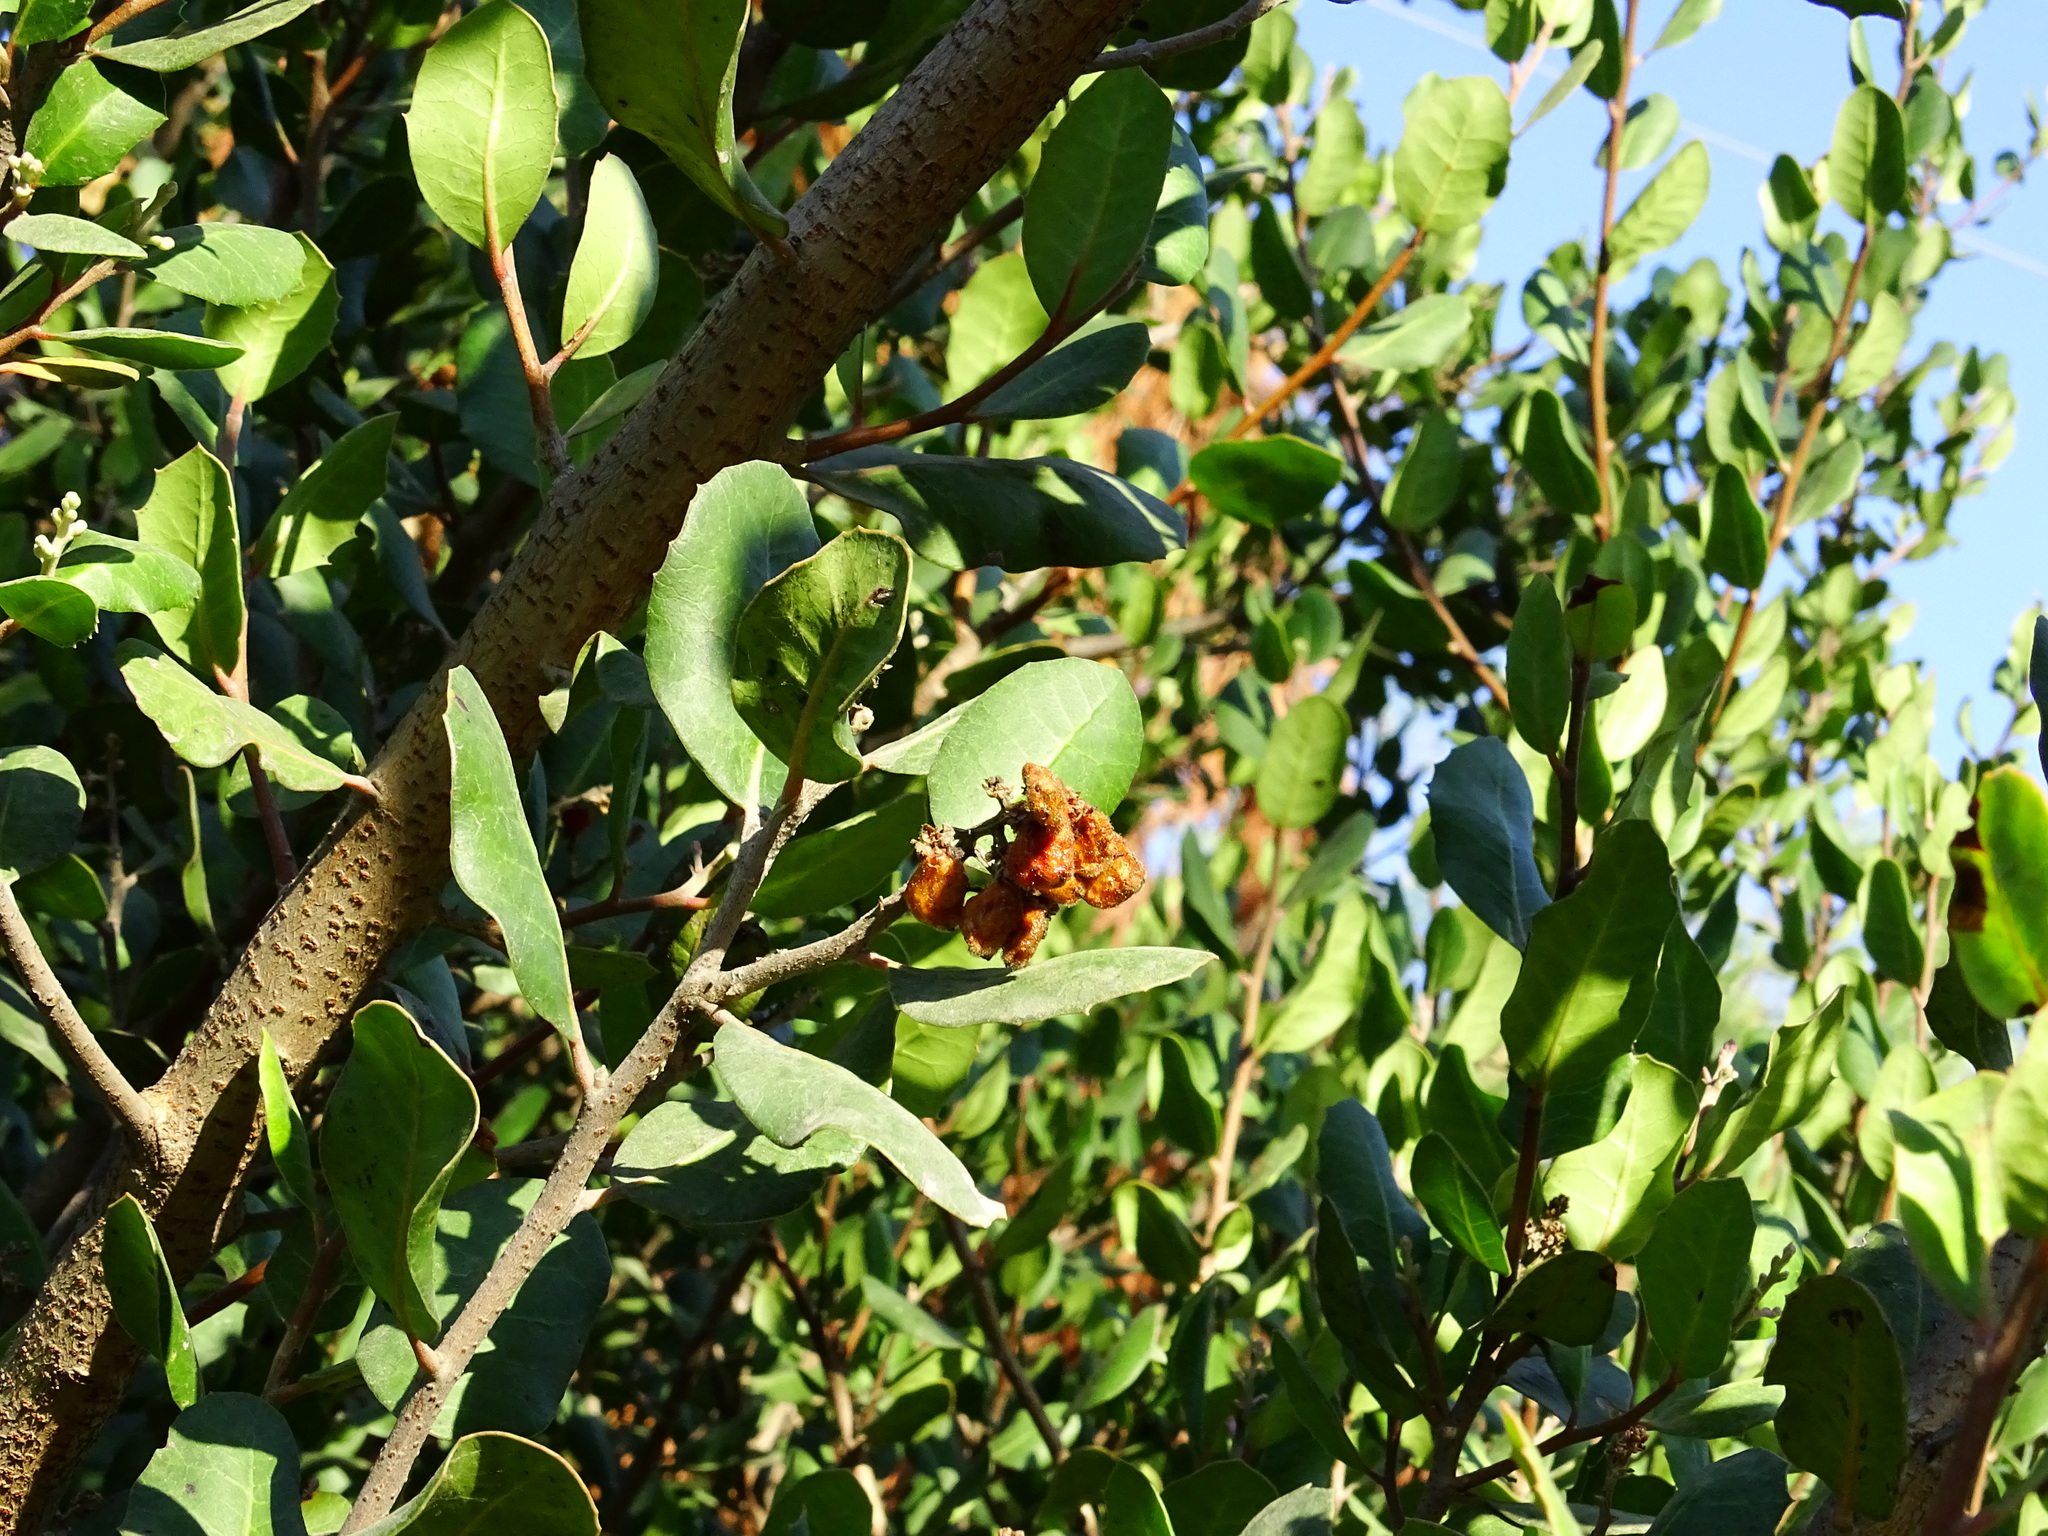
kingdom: Plantae
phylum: Tracheophyta
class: Magnoliopsida
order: Sapindales
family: Anacardiaceae
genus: Rhus
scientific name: Rhus integrifolia
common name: Lemonade sumac
